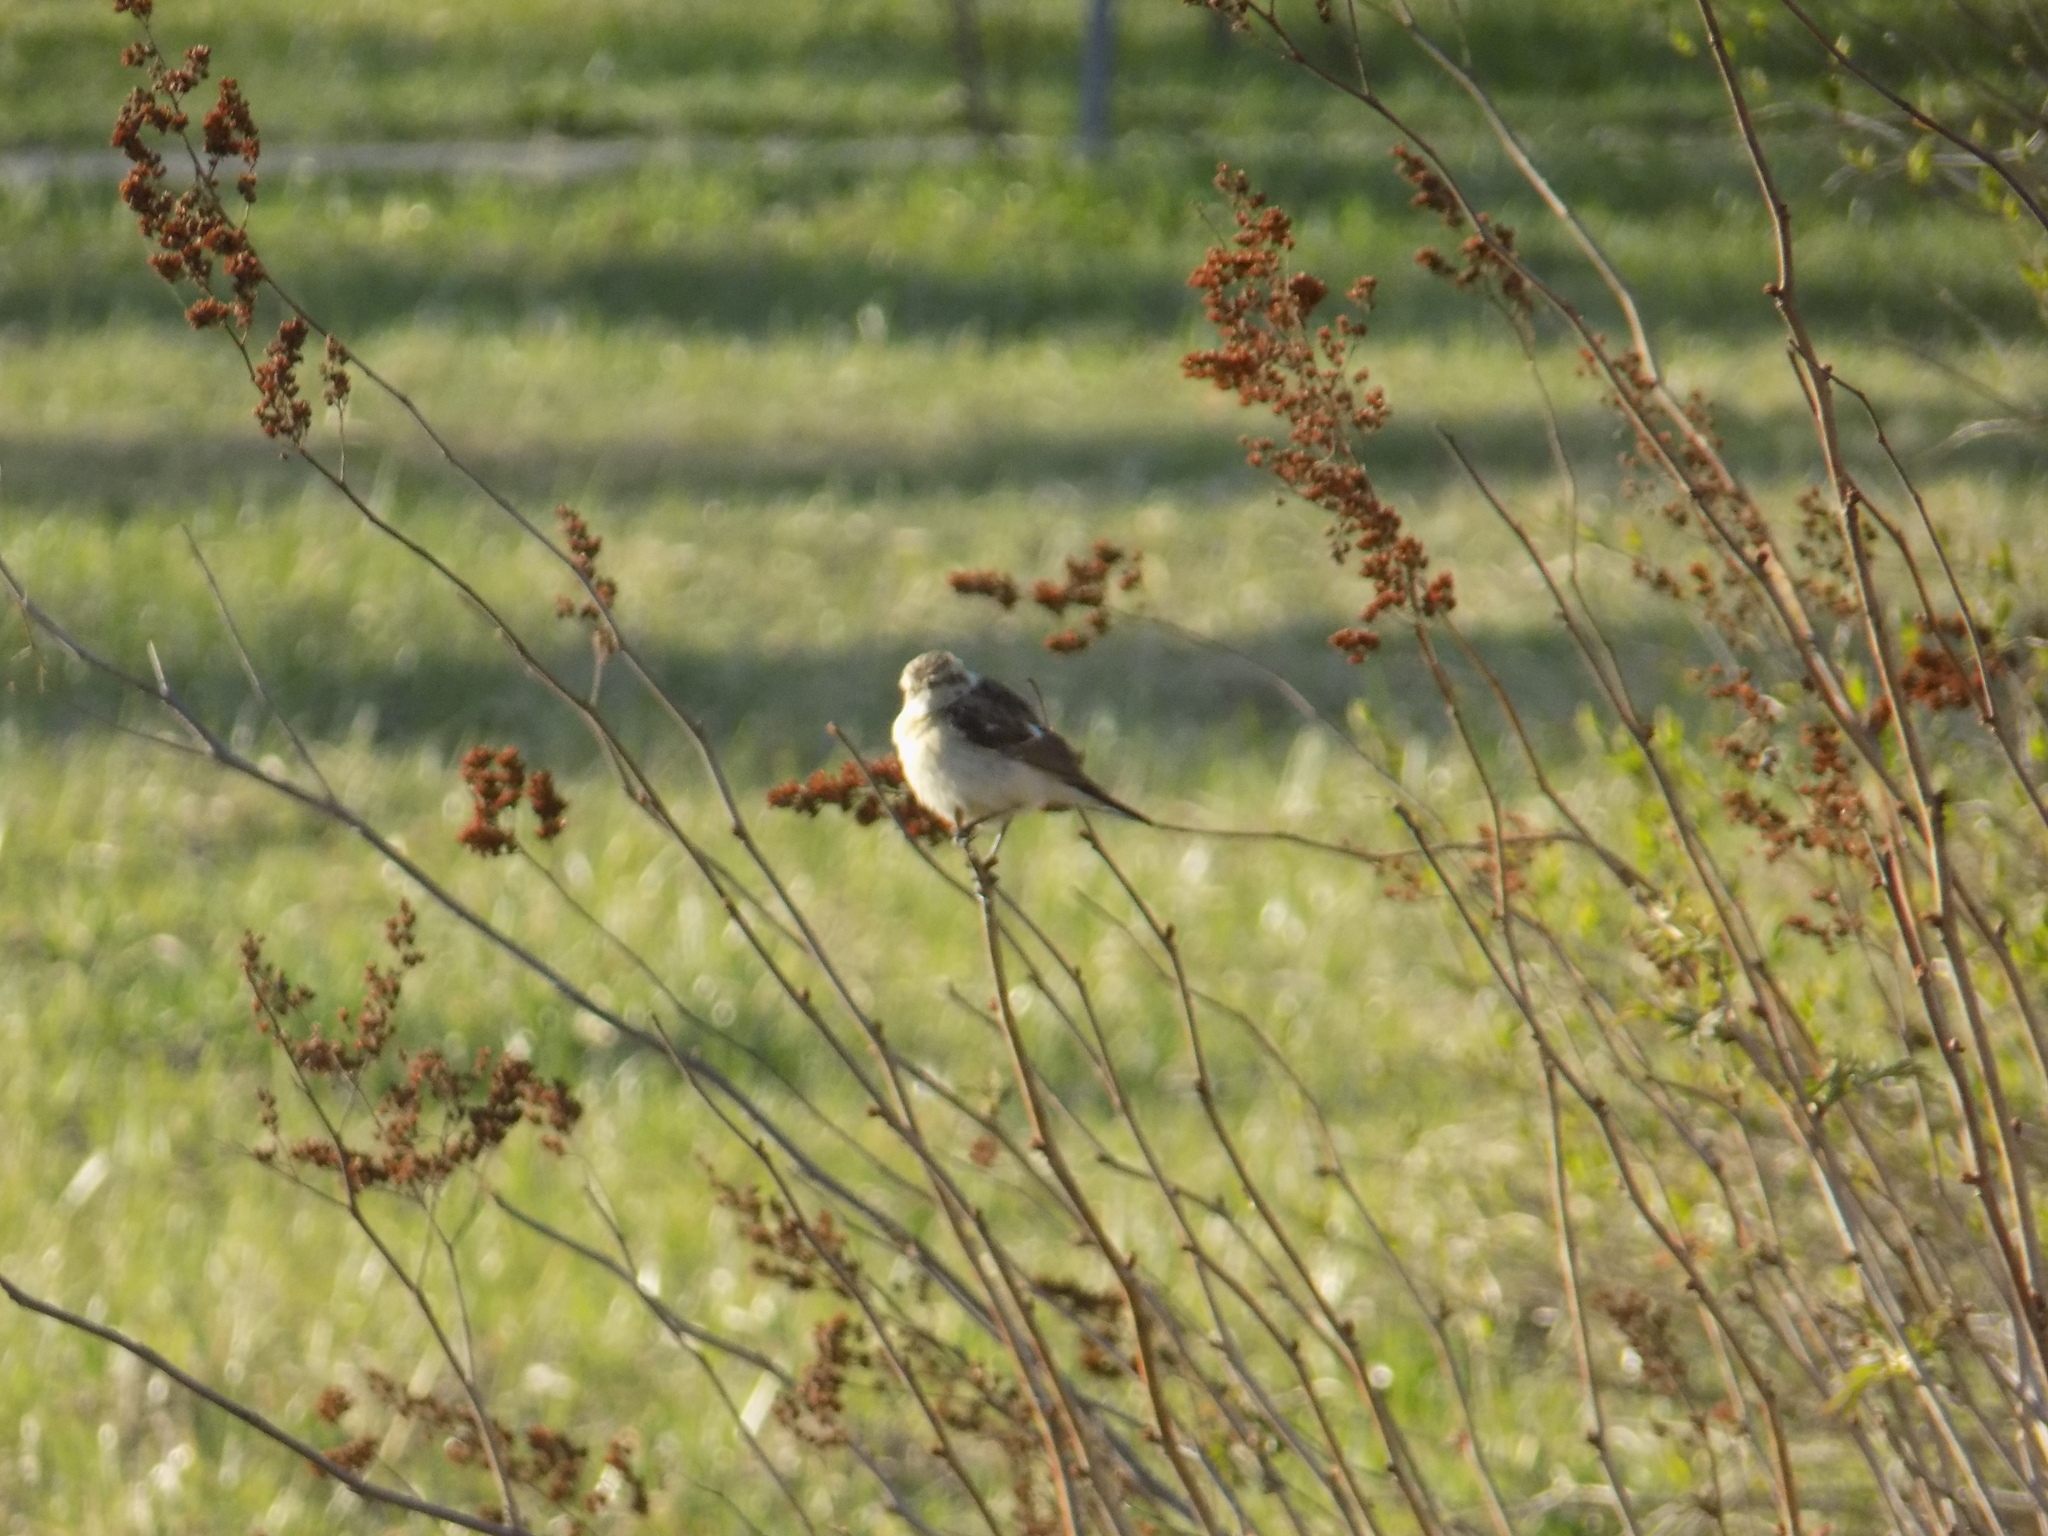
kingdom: Animalia
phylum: Chordata
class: Aves
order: Passeriformes
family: Muscicapidae
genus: Saxicola
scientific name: Saxicola maurus
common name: Siberian stonechat
